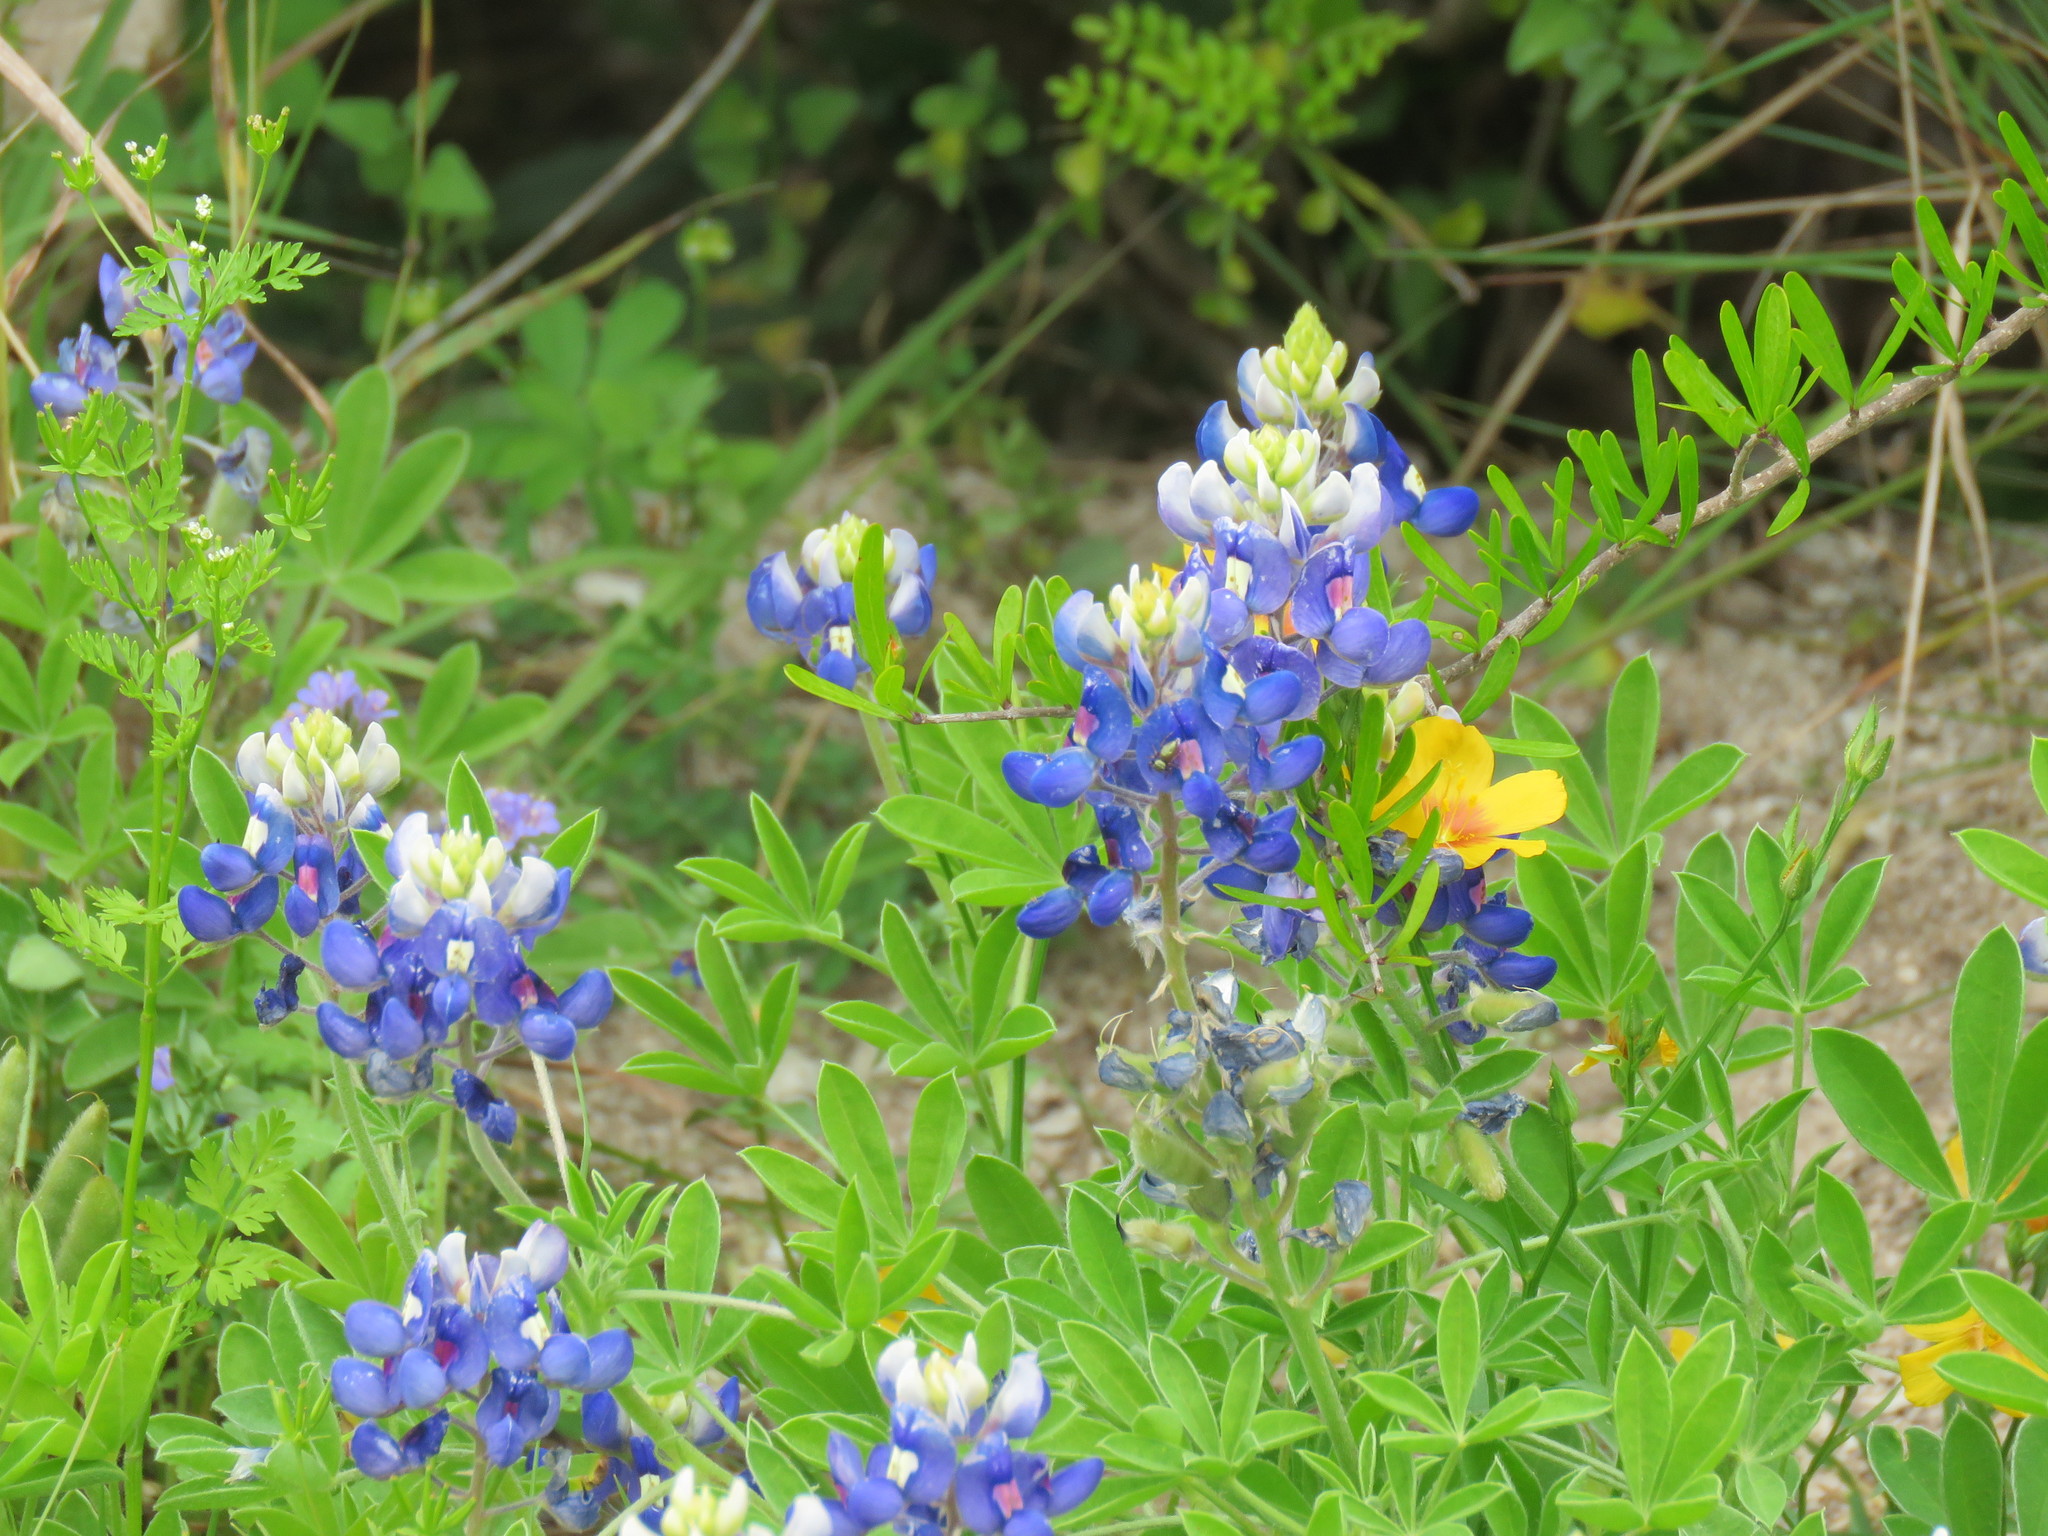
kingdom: Plantae
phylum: Tracheophyta
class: Magnoliopsida
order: Fabales
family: Fabaceae
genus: Lupinus
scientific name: Lupinus texensis
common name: Texas bluebonnet
